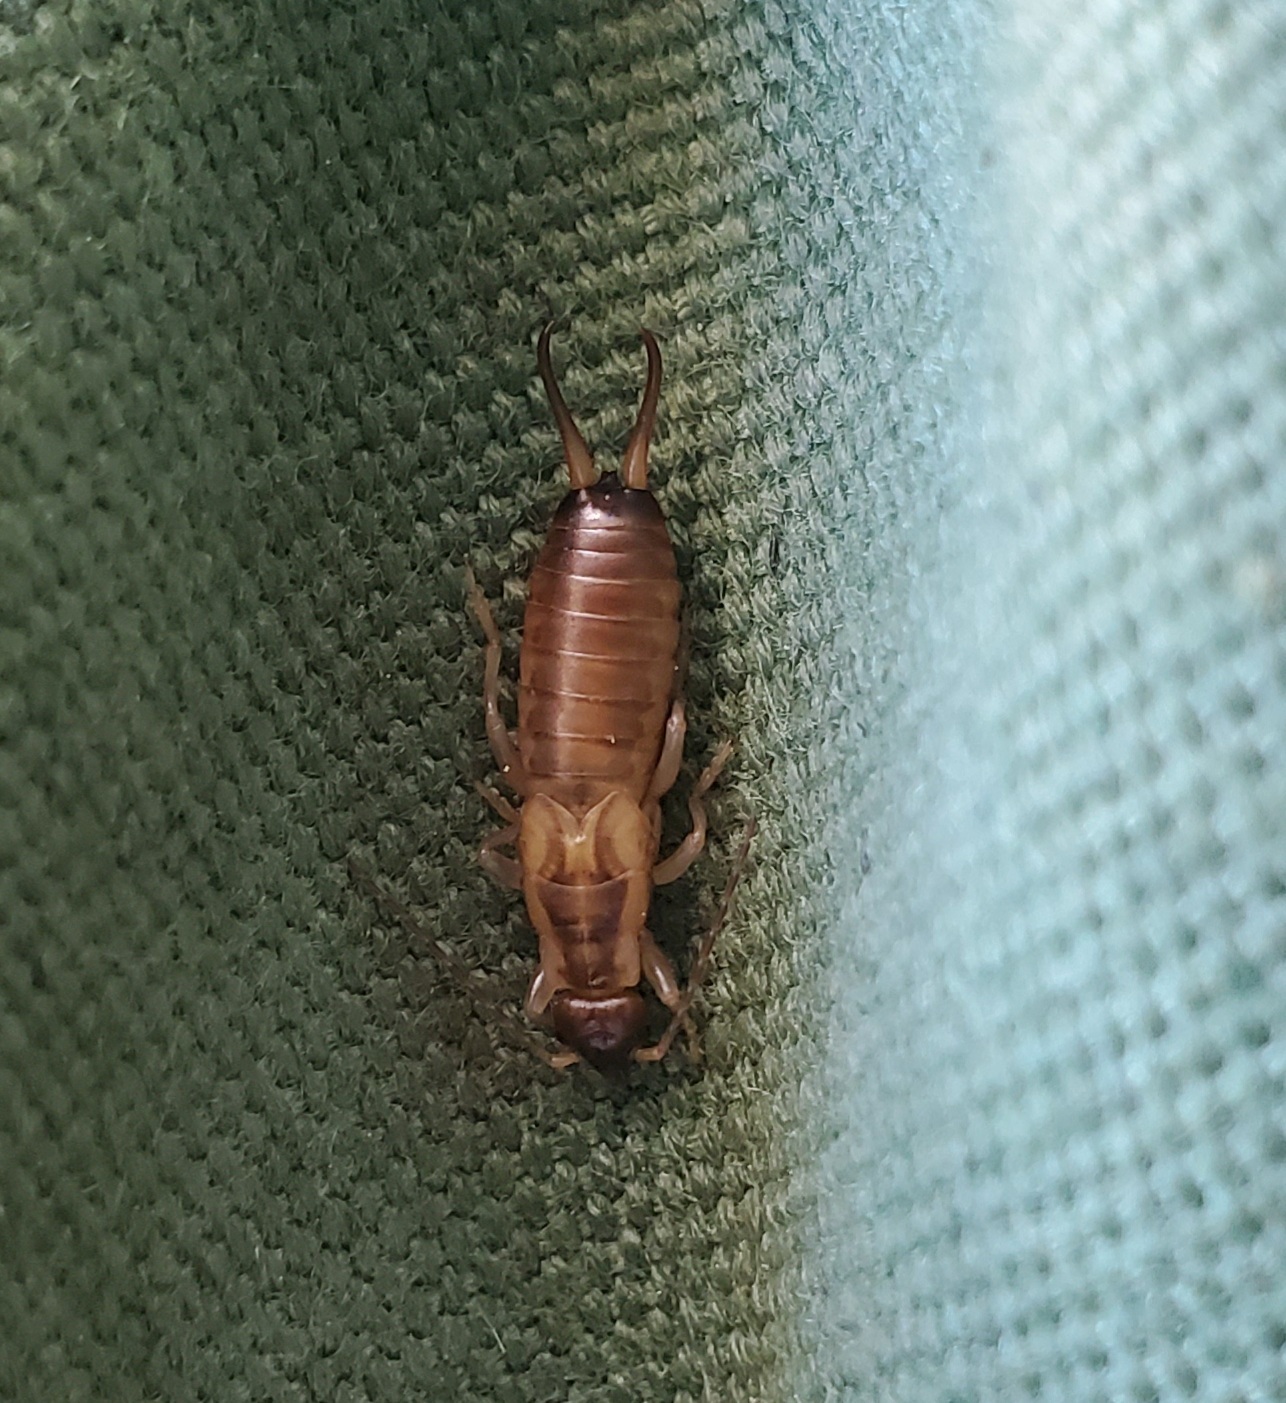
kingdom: Animalia
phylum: Arthropoda
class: Insecta
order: Dermaptera
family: Forficulidae
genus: Forficula
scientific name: Forficula
